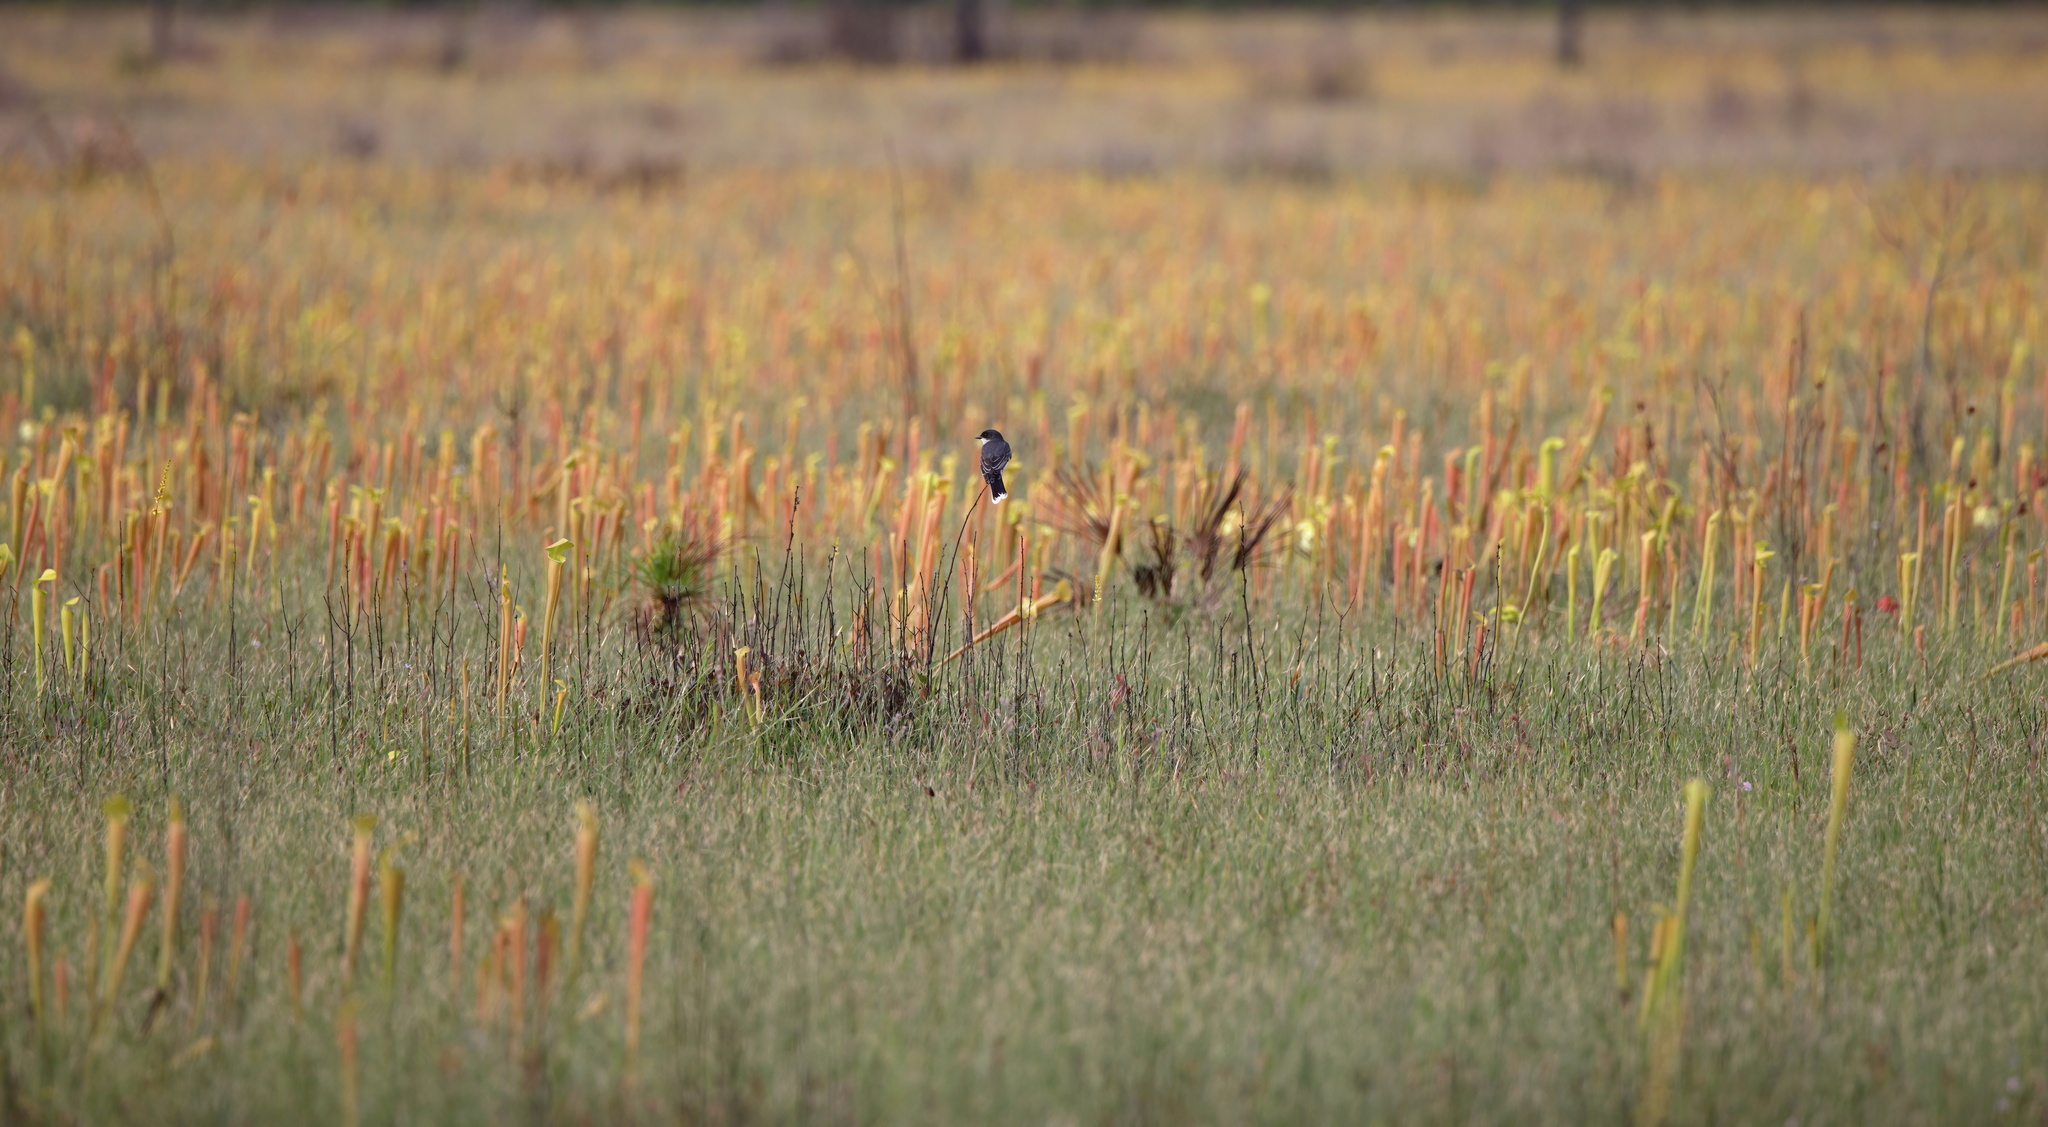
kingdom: Animalia
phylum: Chordata
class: Aves
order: Passeriformes
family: Tyrannidae
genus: Tyrannus
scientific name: Tyrannus tyrannus
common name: Eastern kingbird
